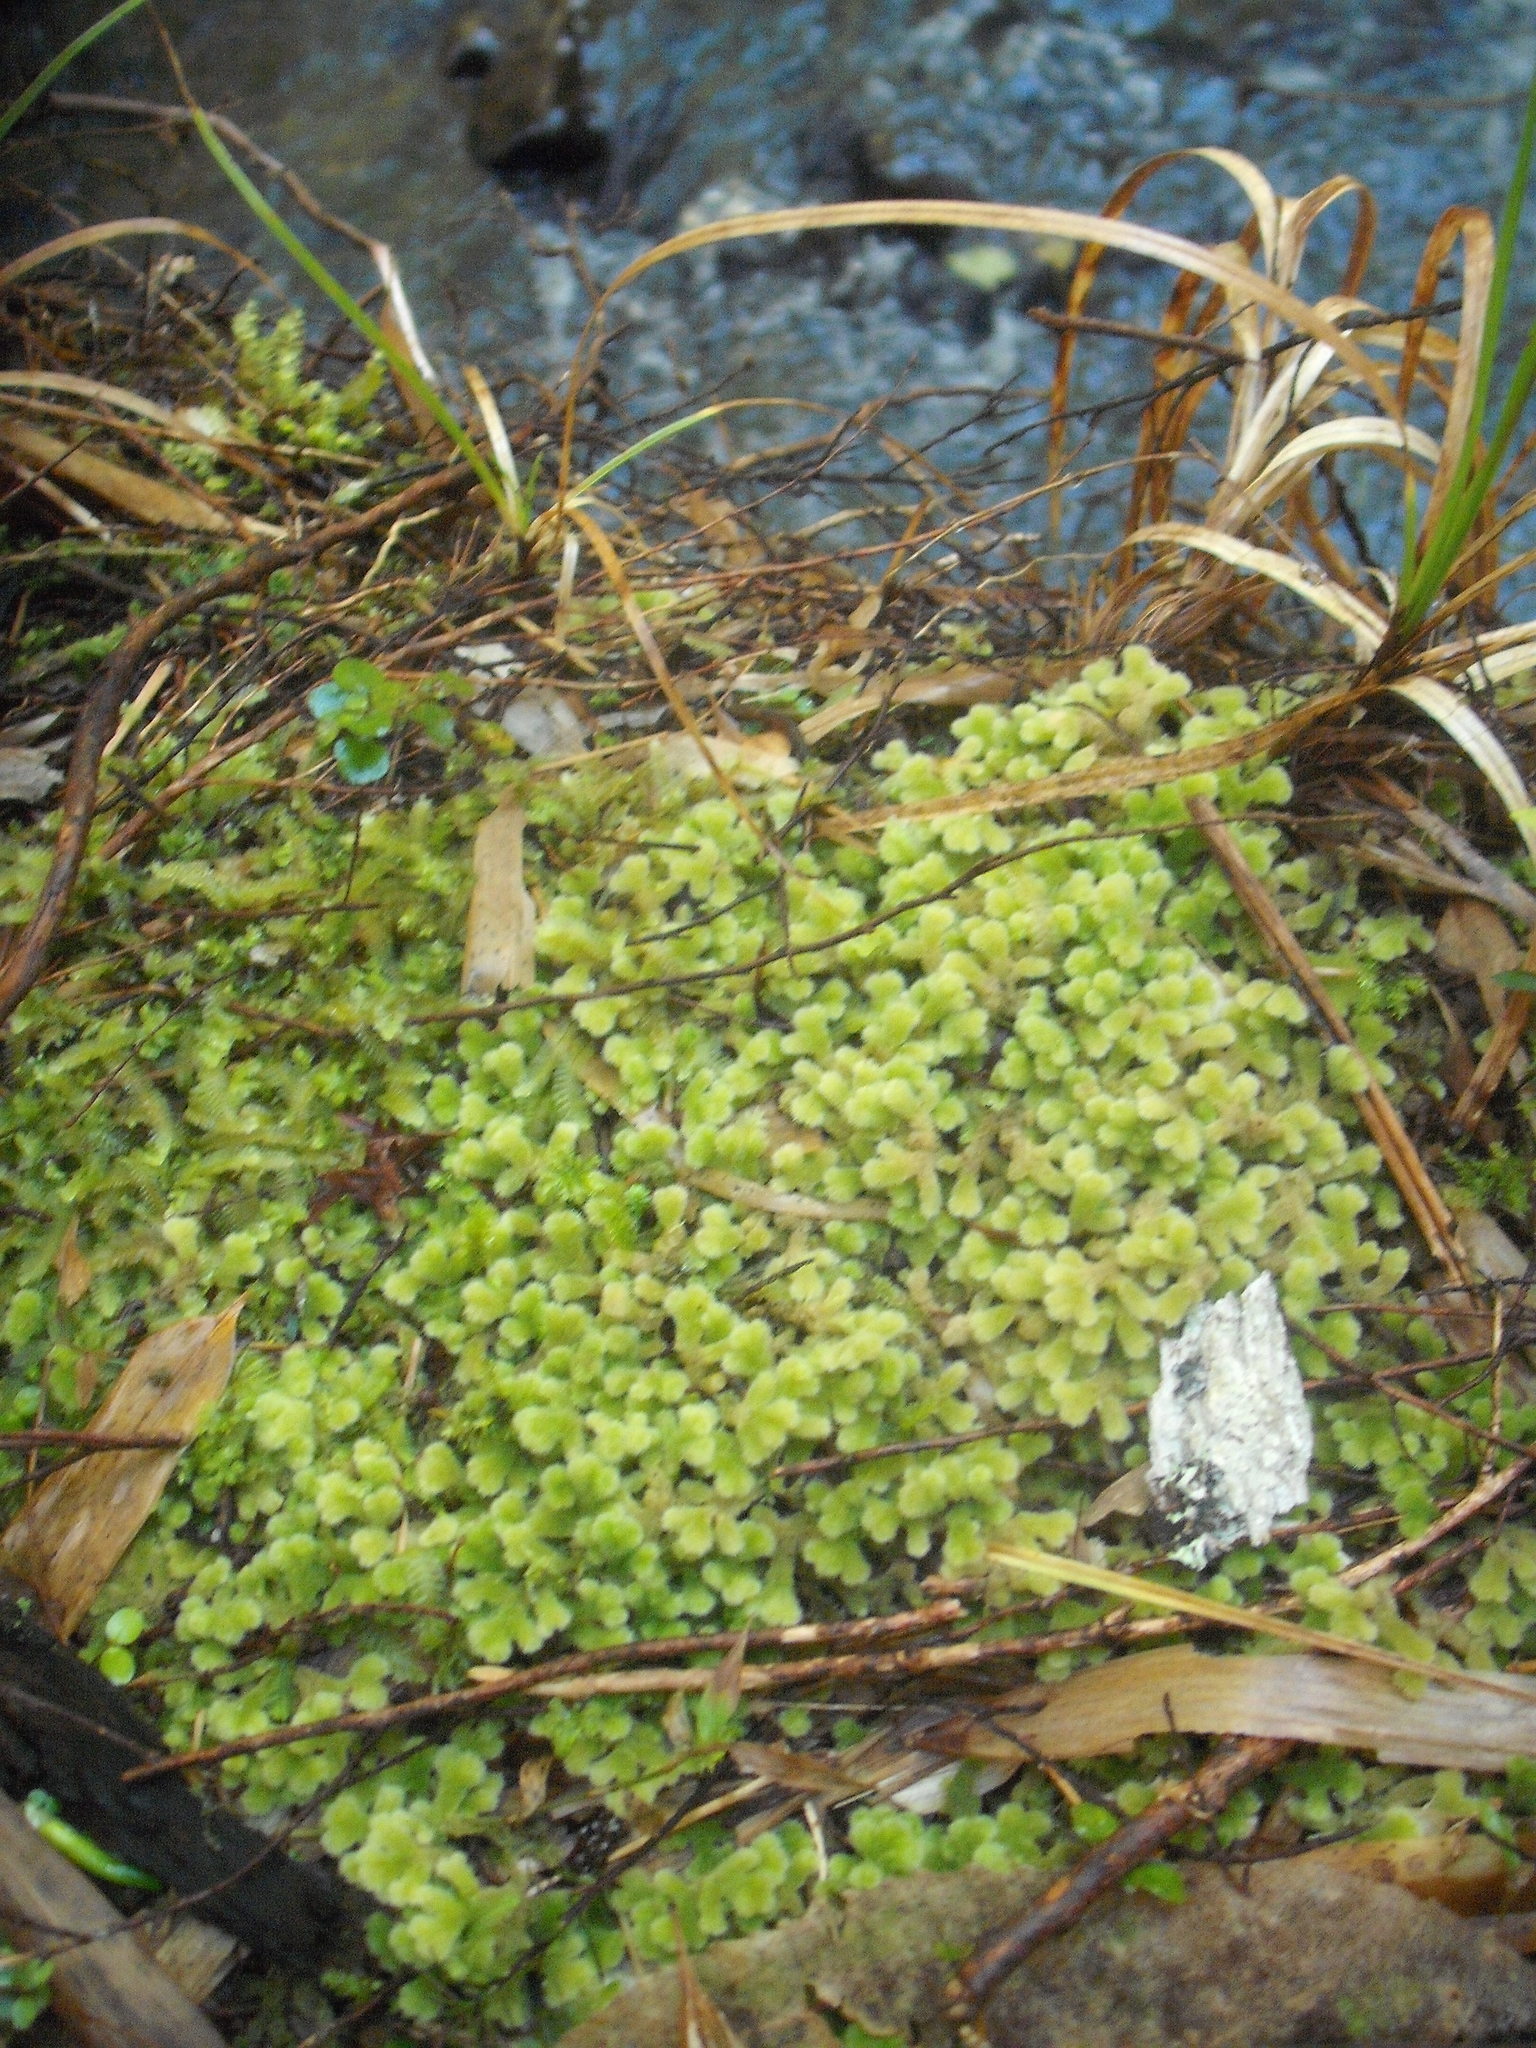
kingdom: Plantae
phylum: Marchantiophyta
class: Jungermanniopsida
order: Jungermanniales
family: Trichocoleaceae
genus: Leiomitra
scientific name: Leiomitra lanata
